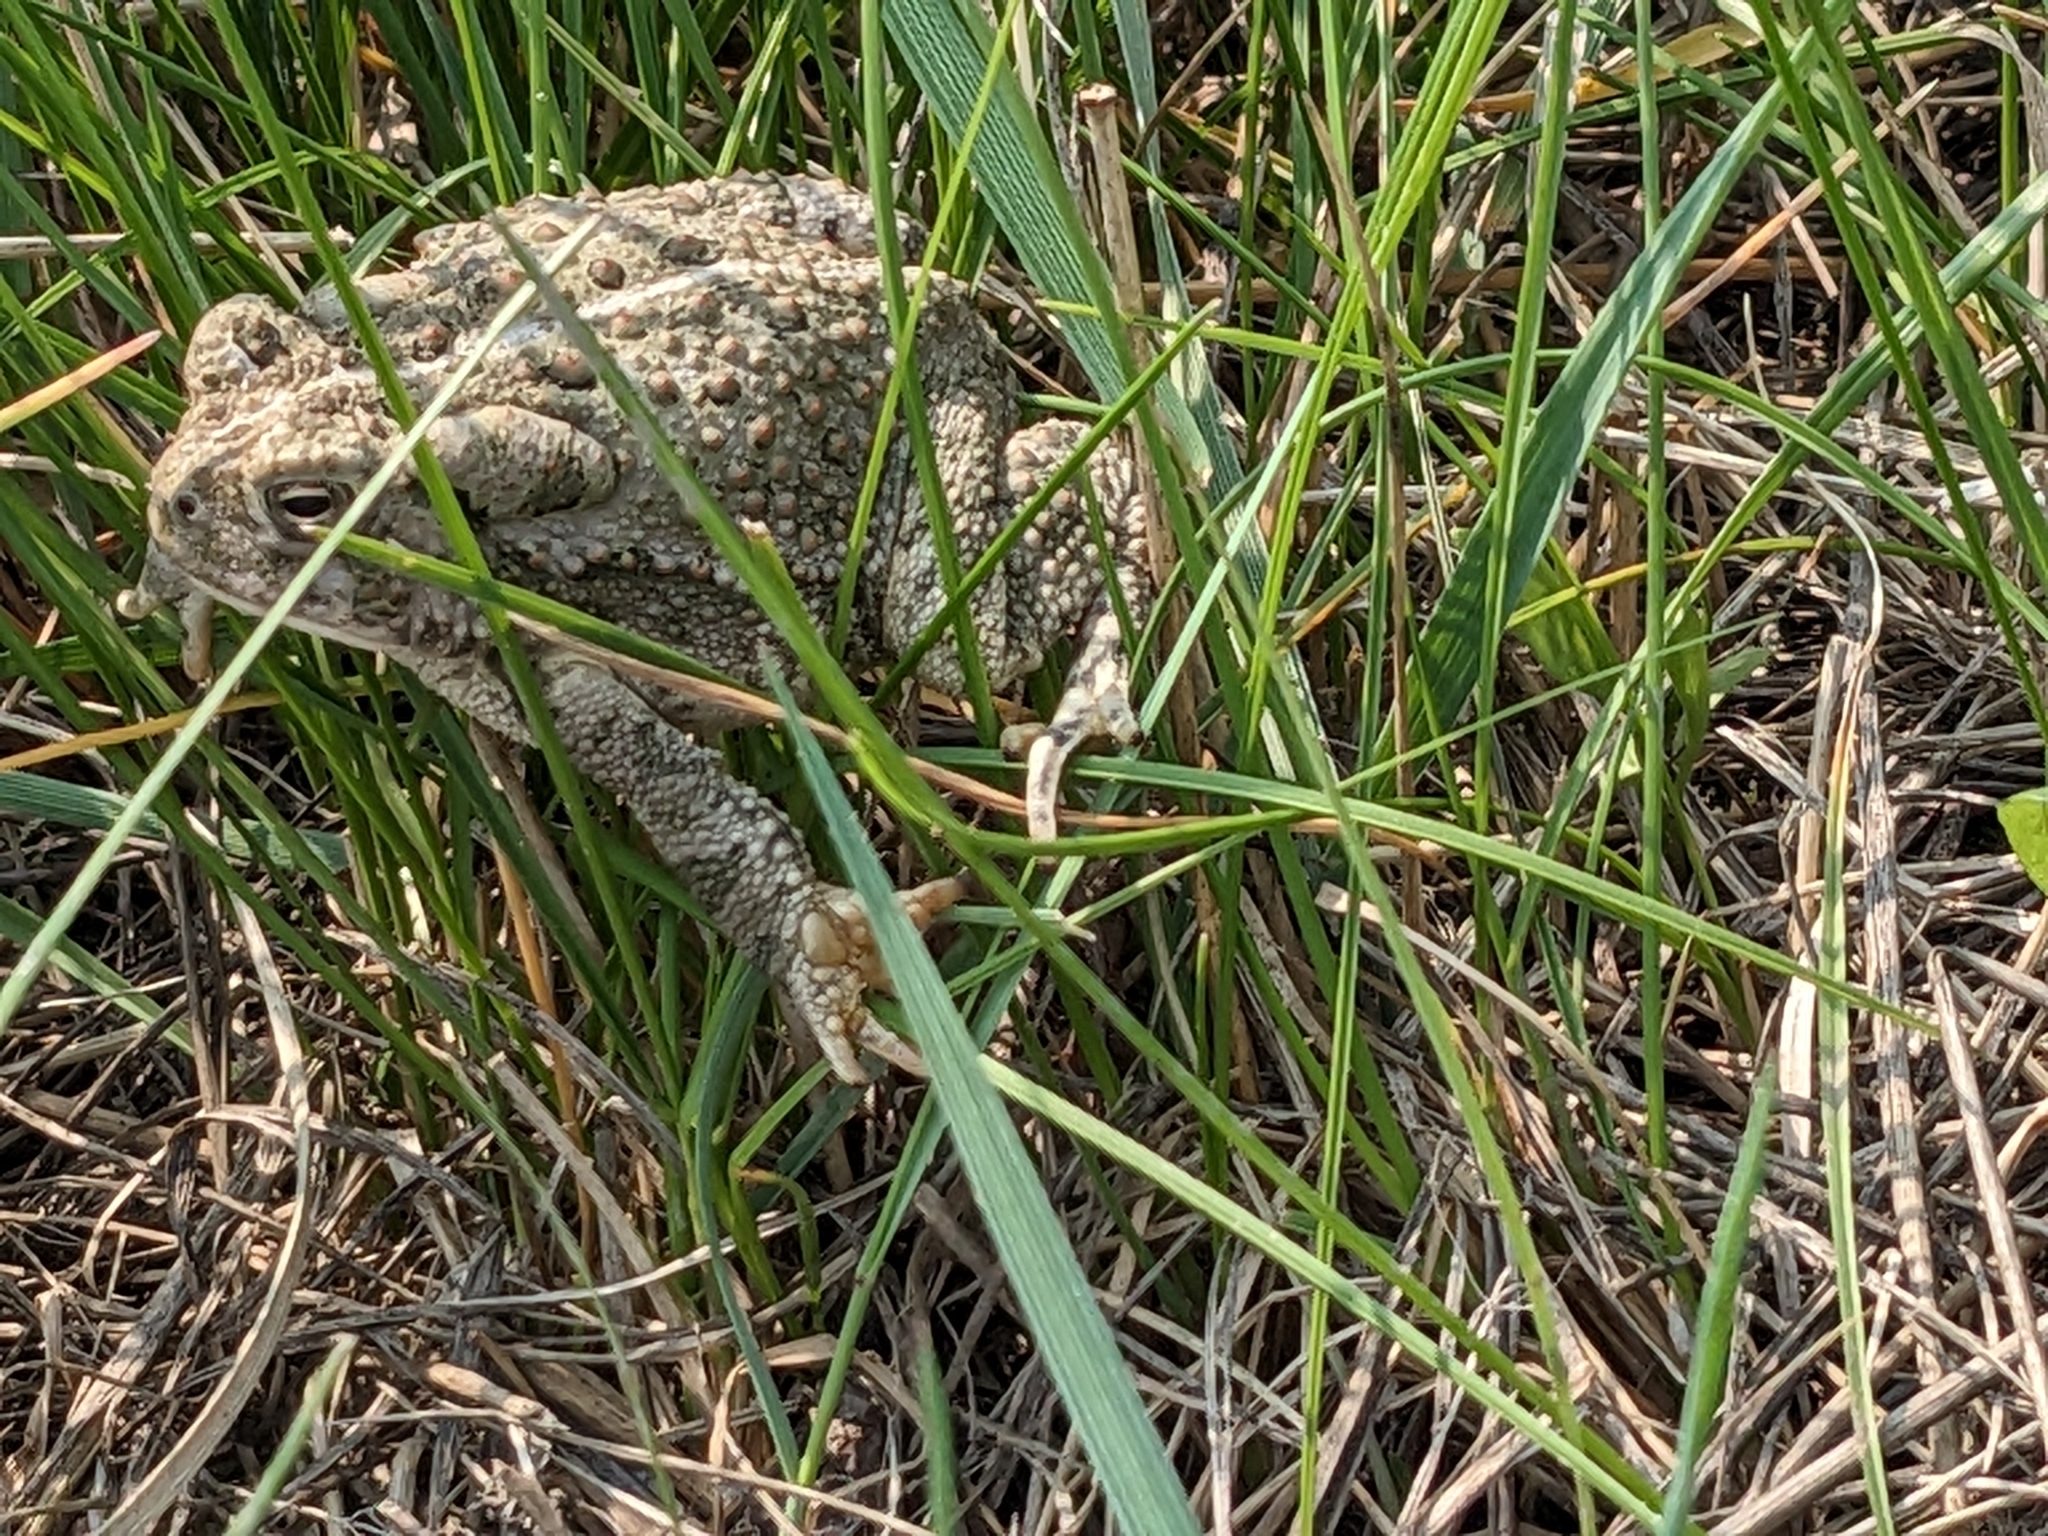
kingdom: Animalia
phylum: Chordata
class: Amphibia
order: Anura
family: Bufonidae
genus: Anaxyrus
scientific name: Anaxyrus woodhousii
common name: Woodhouse's toad
